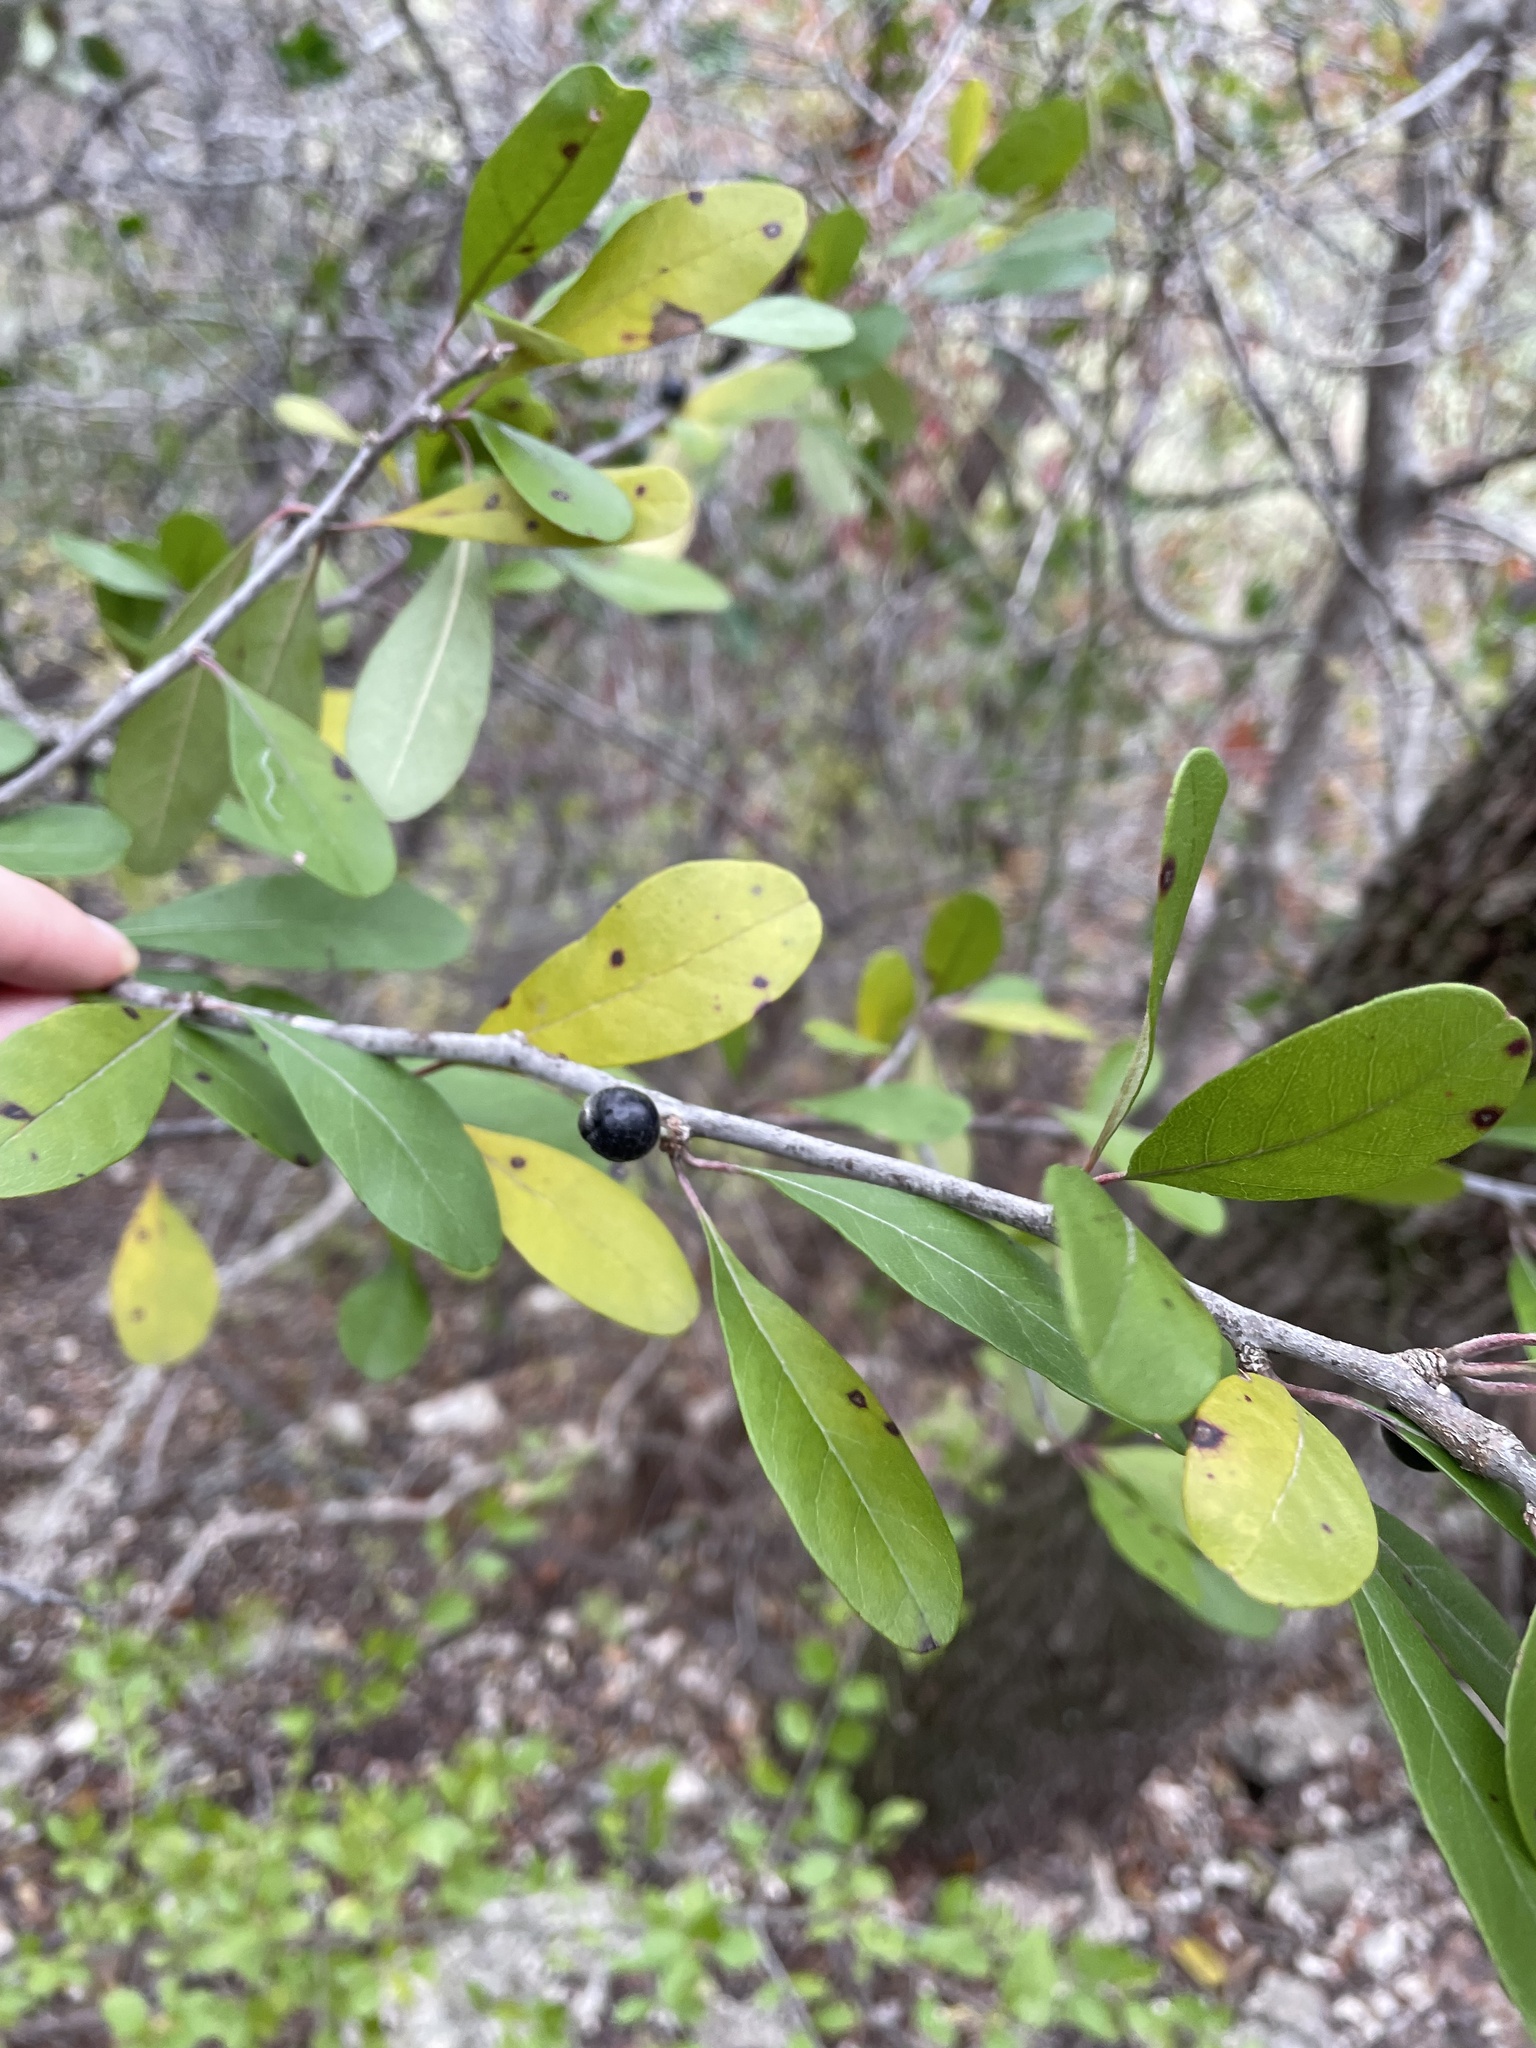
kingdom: Plantae
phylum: Tracheophyta
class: Magnoliopsida
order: Ericales
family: Sapotaceae
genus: Sideroxylon
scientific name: Sideroxylon lanuginosum
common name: Chittamwood
